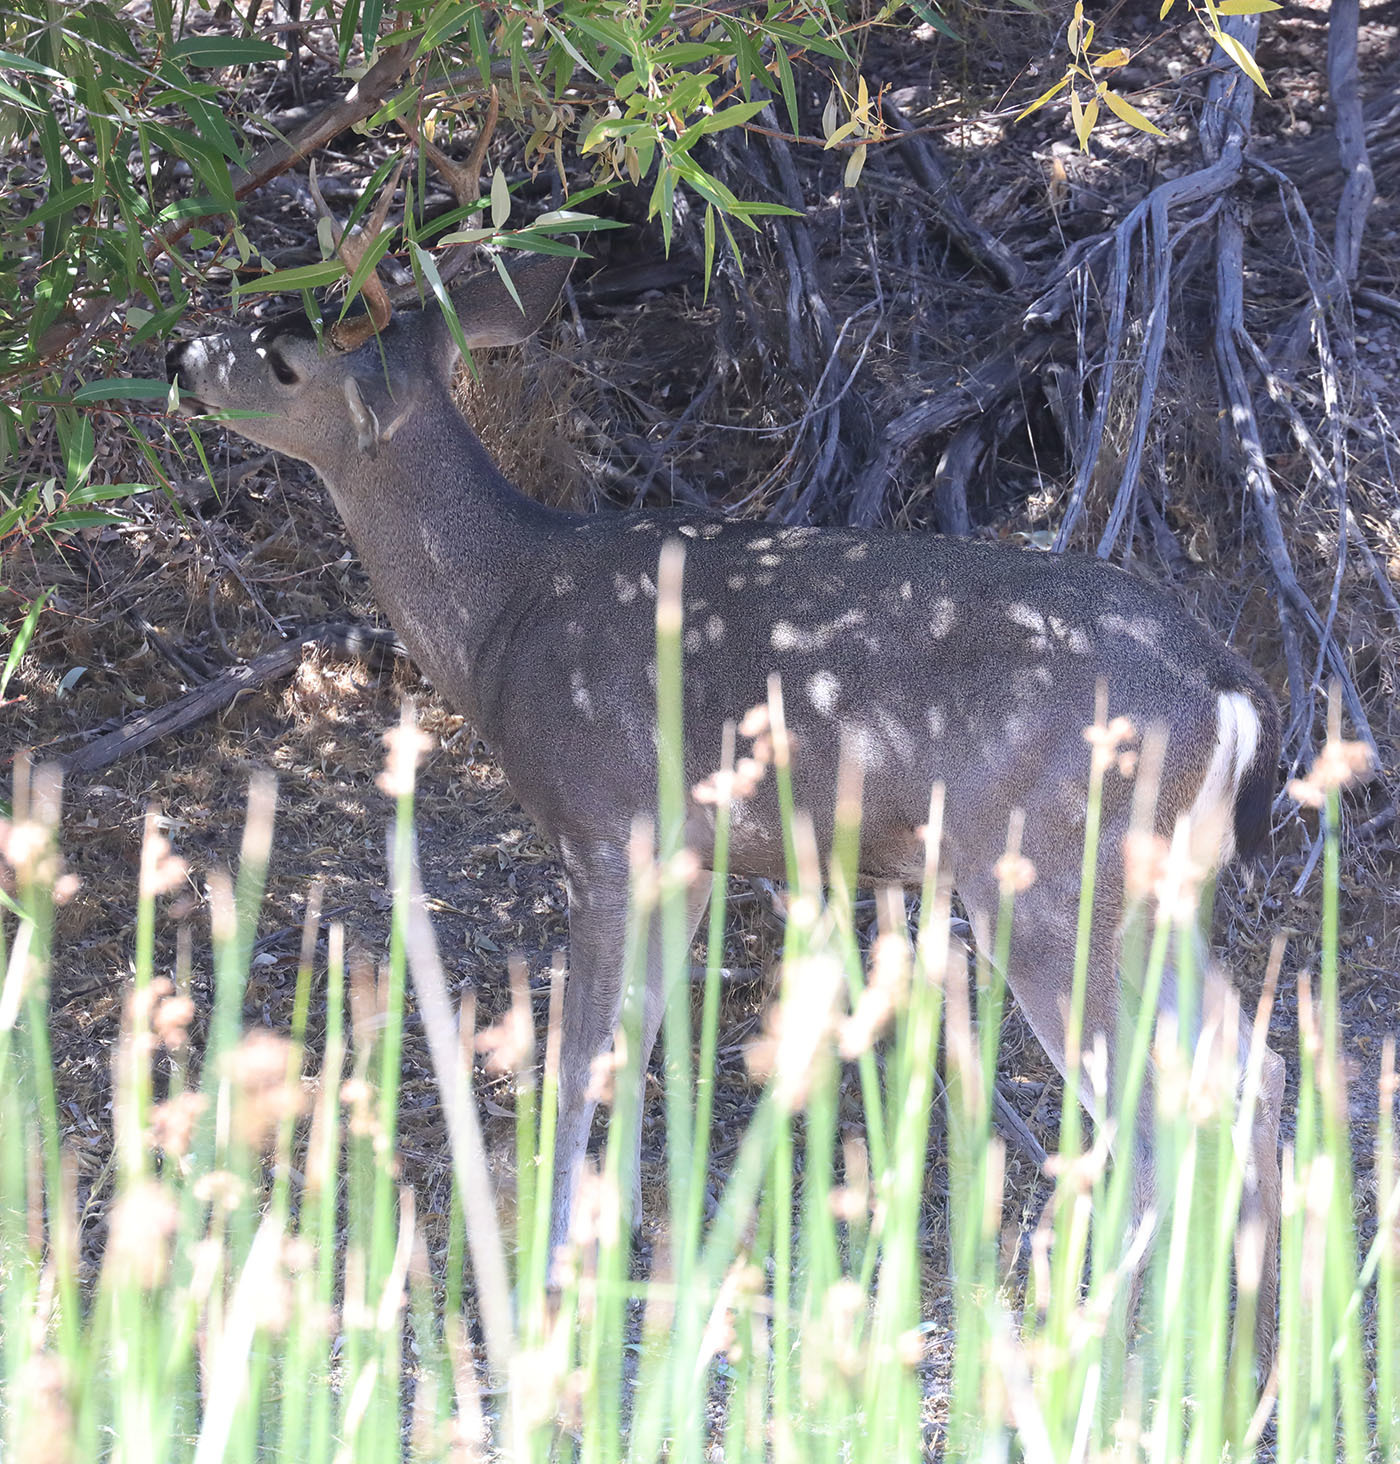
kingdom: Animalia
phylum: Chordata
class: Mammalia
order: Artiodactyla
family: Cervidae
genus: Odocoileus
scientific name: Odocoileus hemionus
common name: Mule deer
